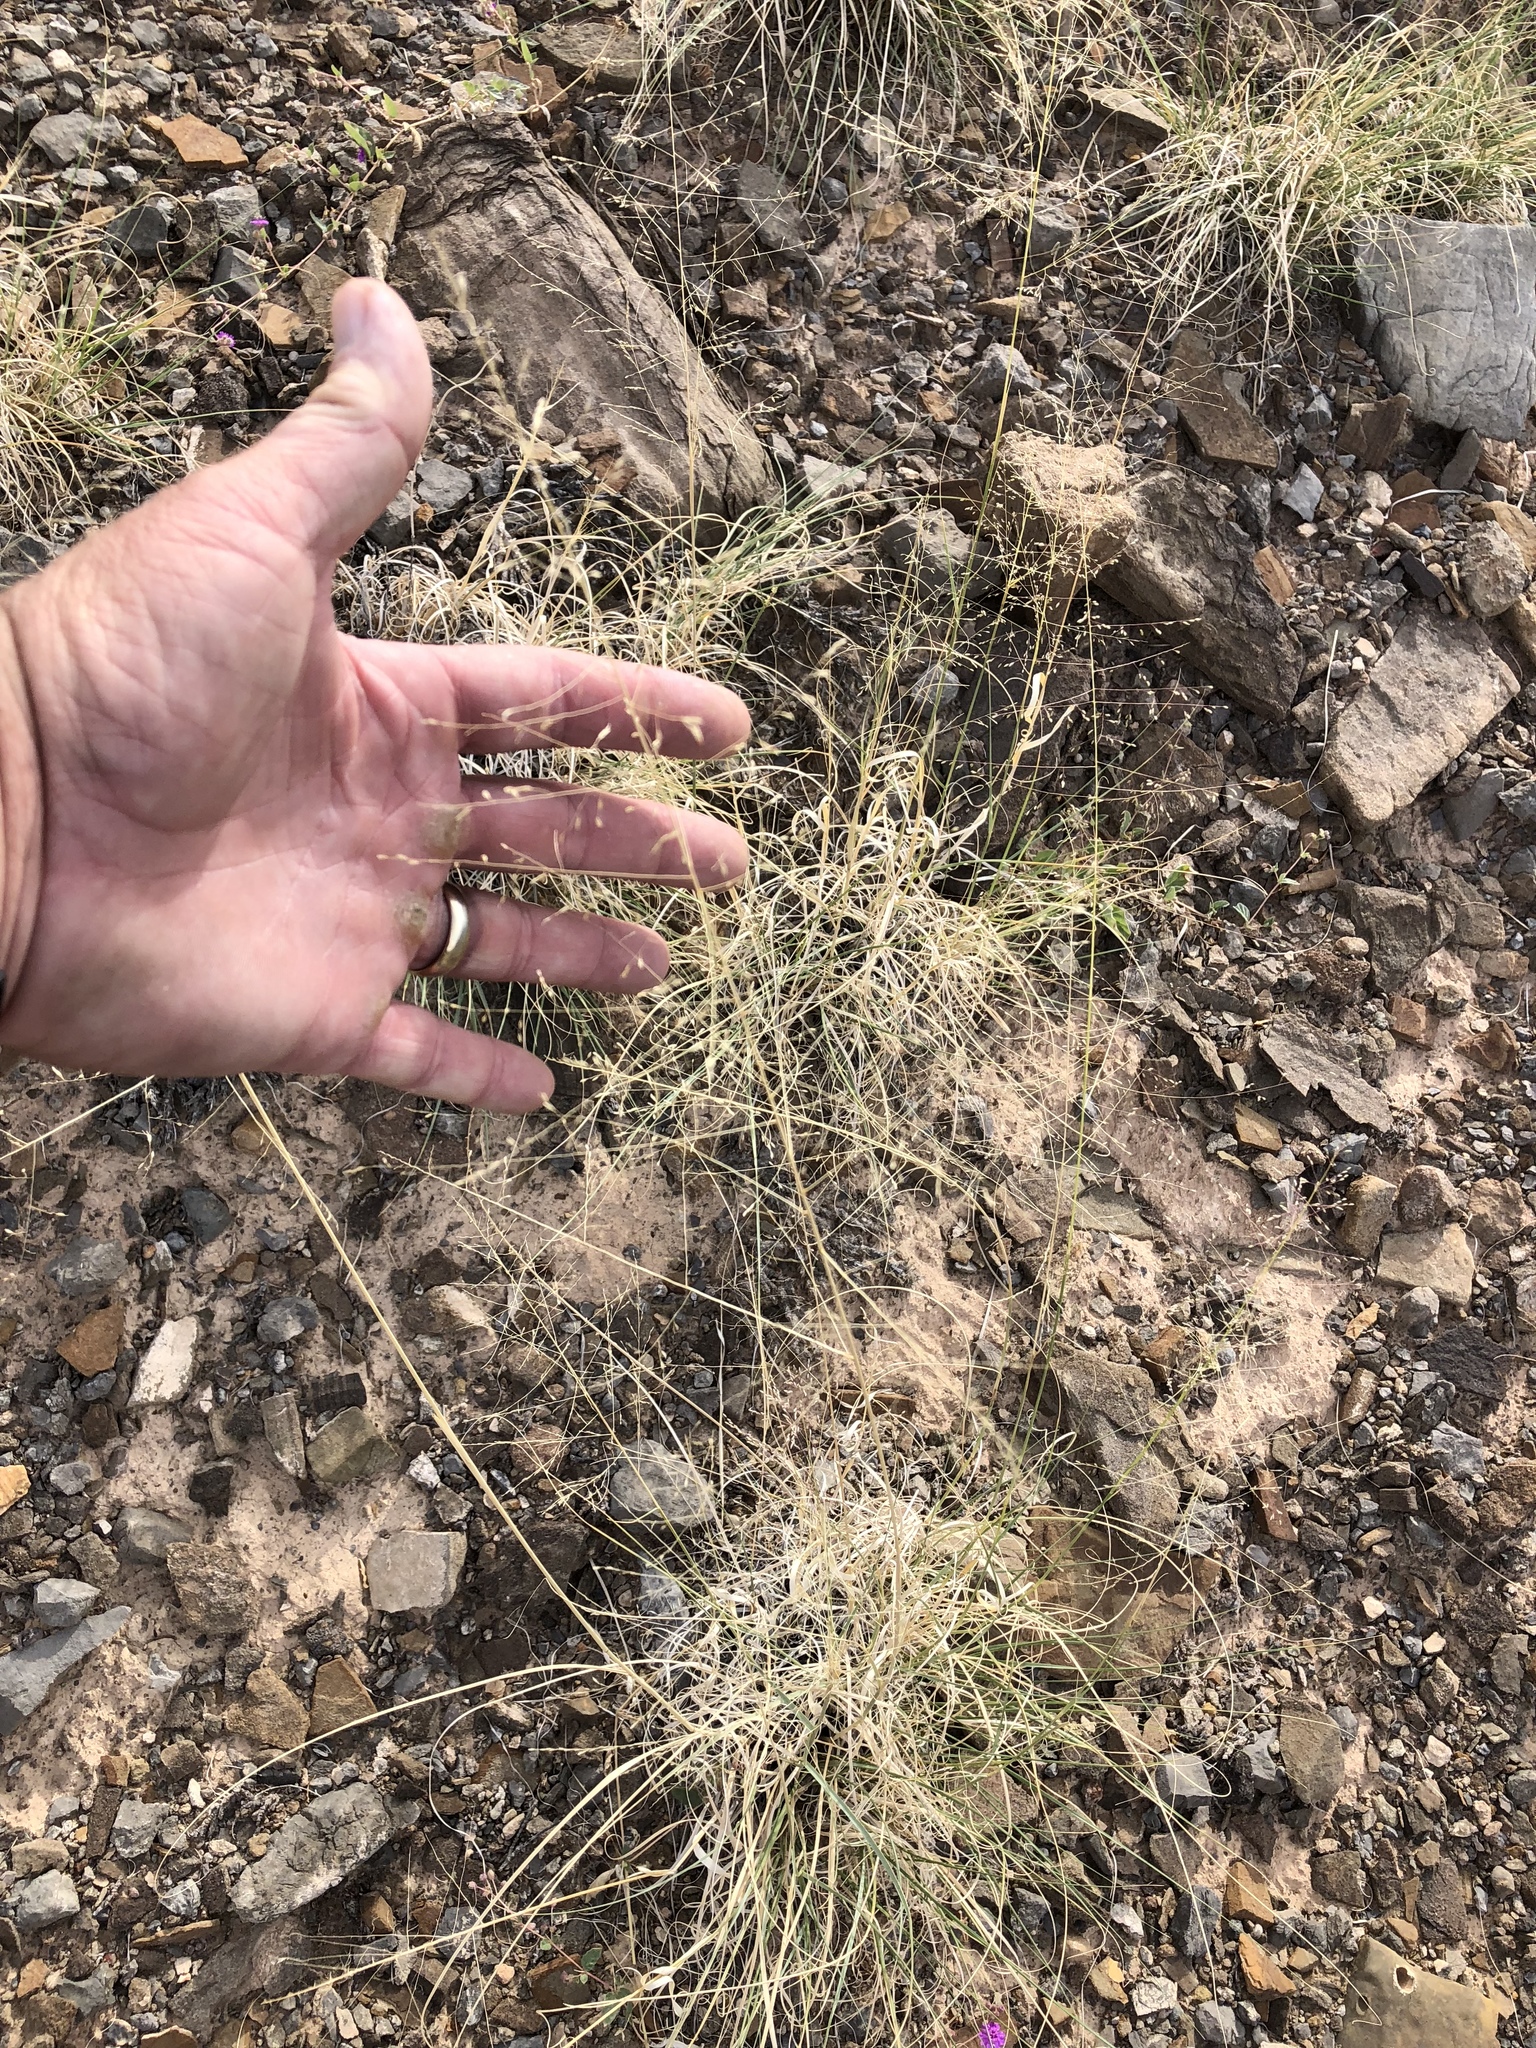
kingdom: Plantae
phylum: Tracheophyta
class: Liliopsida
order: Poales
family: Poaceae
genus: Eriocoma
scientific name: Eriocoma hymenoides
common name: Indian mountain ricegrass
